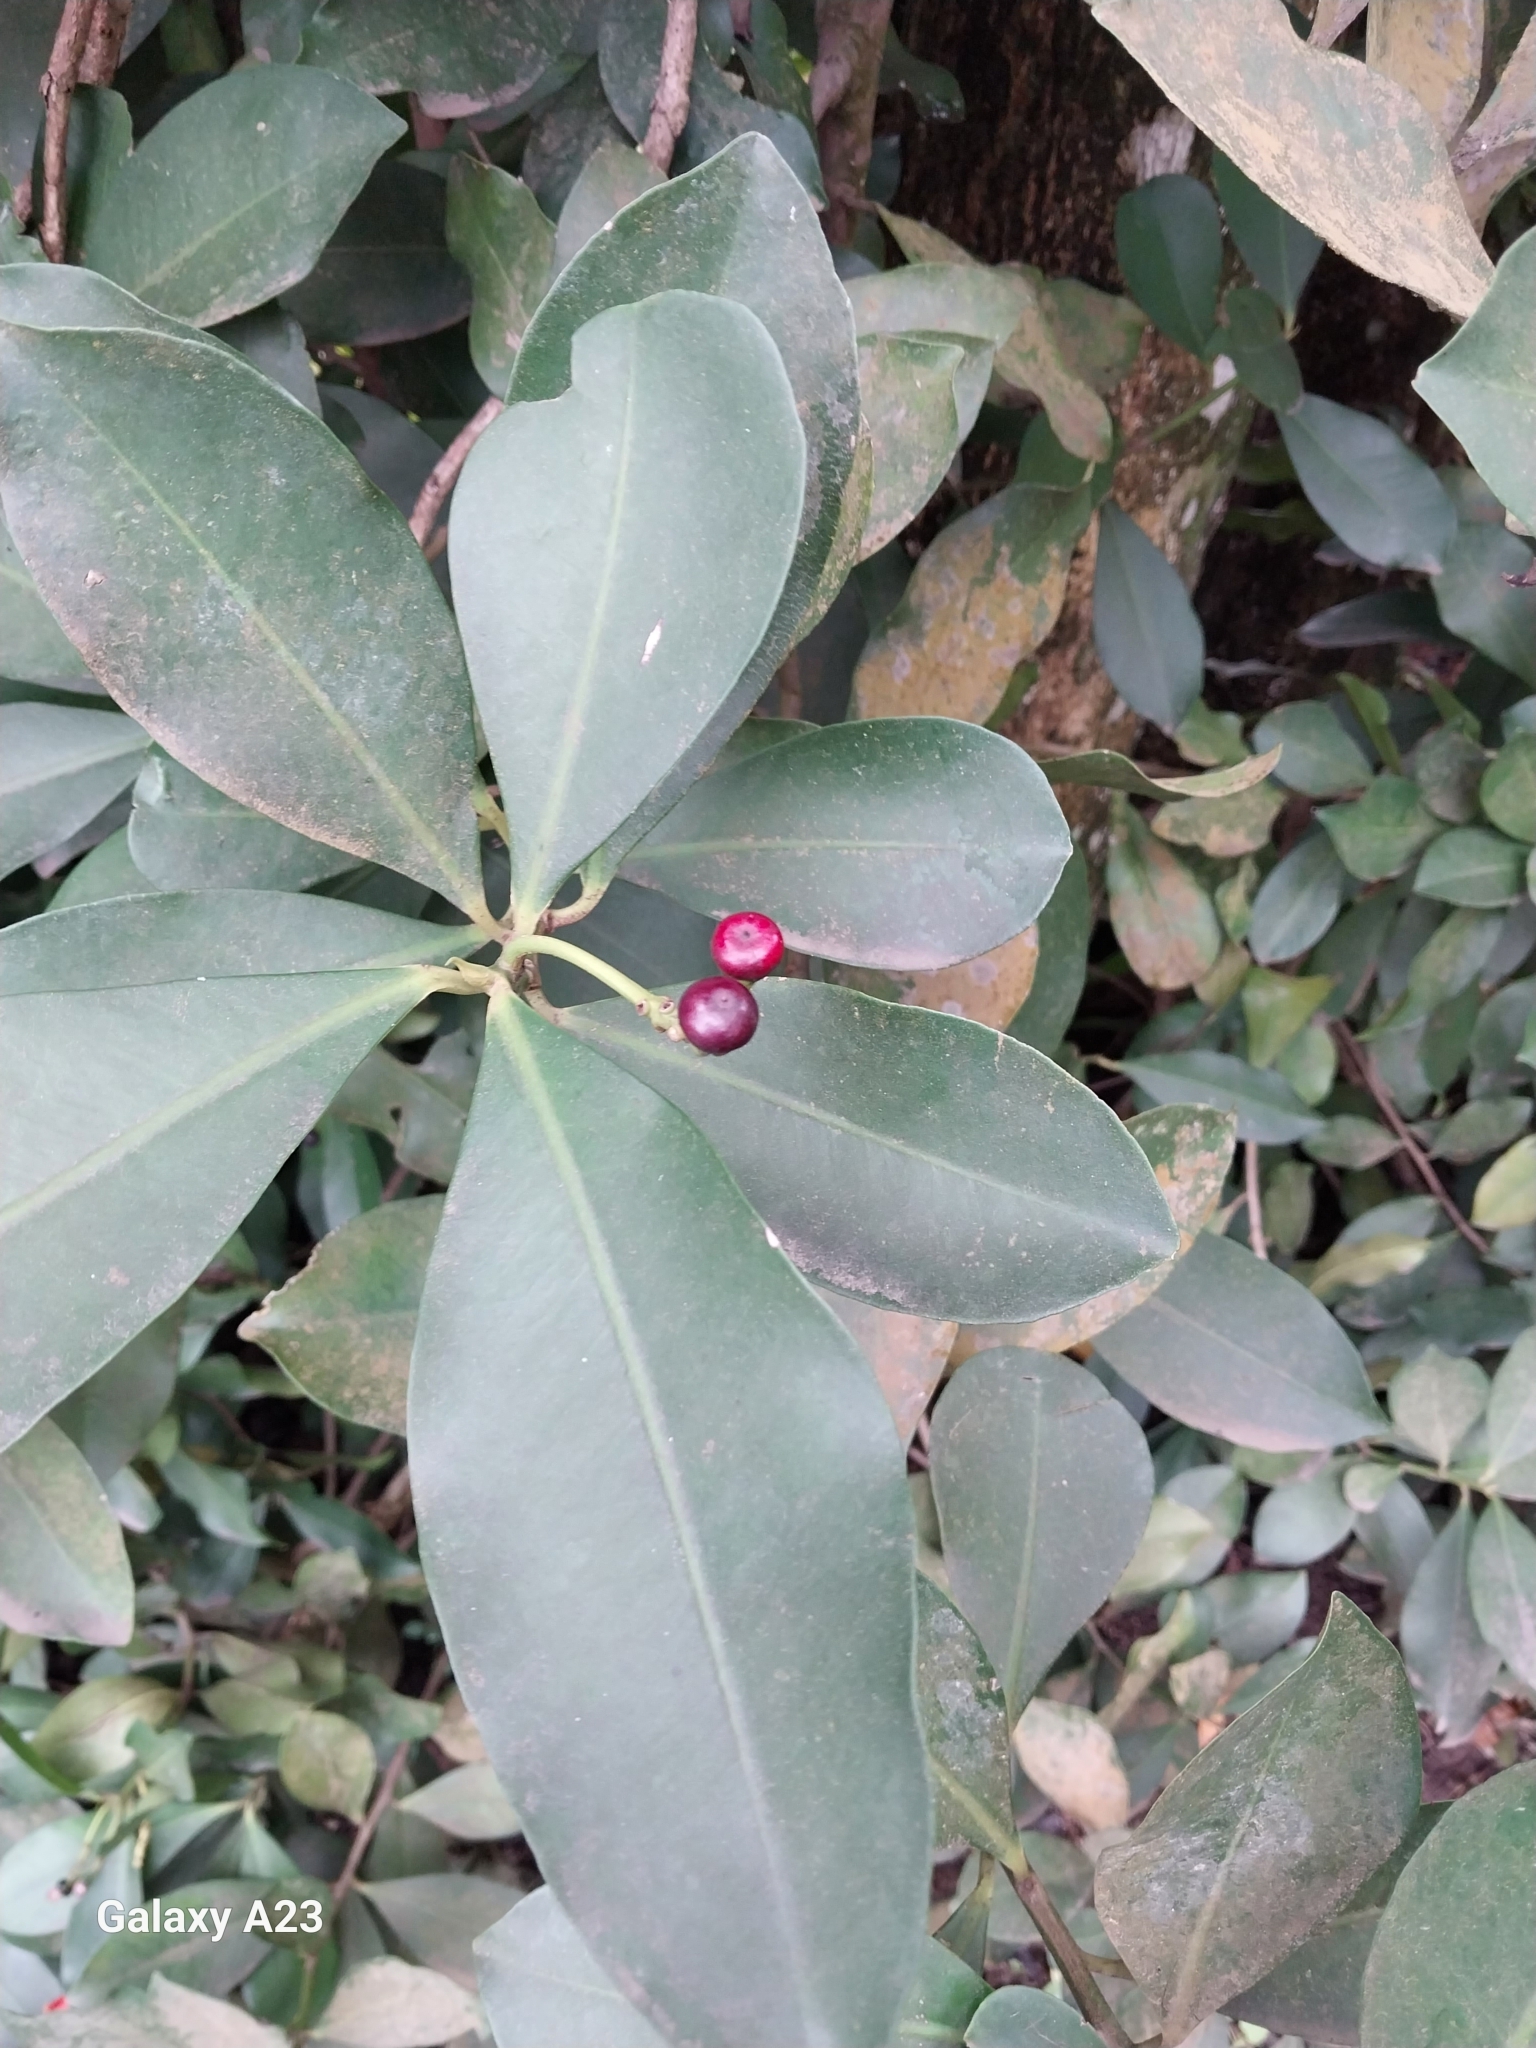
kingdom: Plantae
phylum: Tracheophyta
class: Magnoliopsida
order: Ericales
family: Primulaceae
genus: Ardisia
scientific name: Ardisia elliptica
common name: Shoebutton
